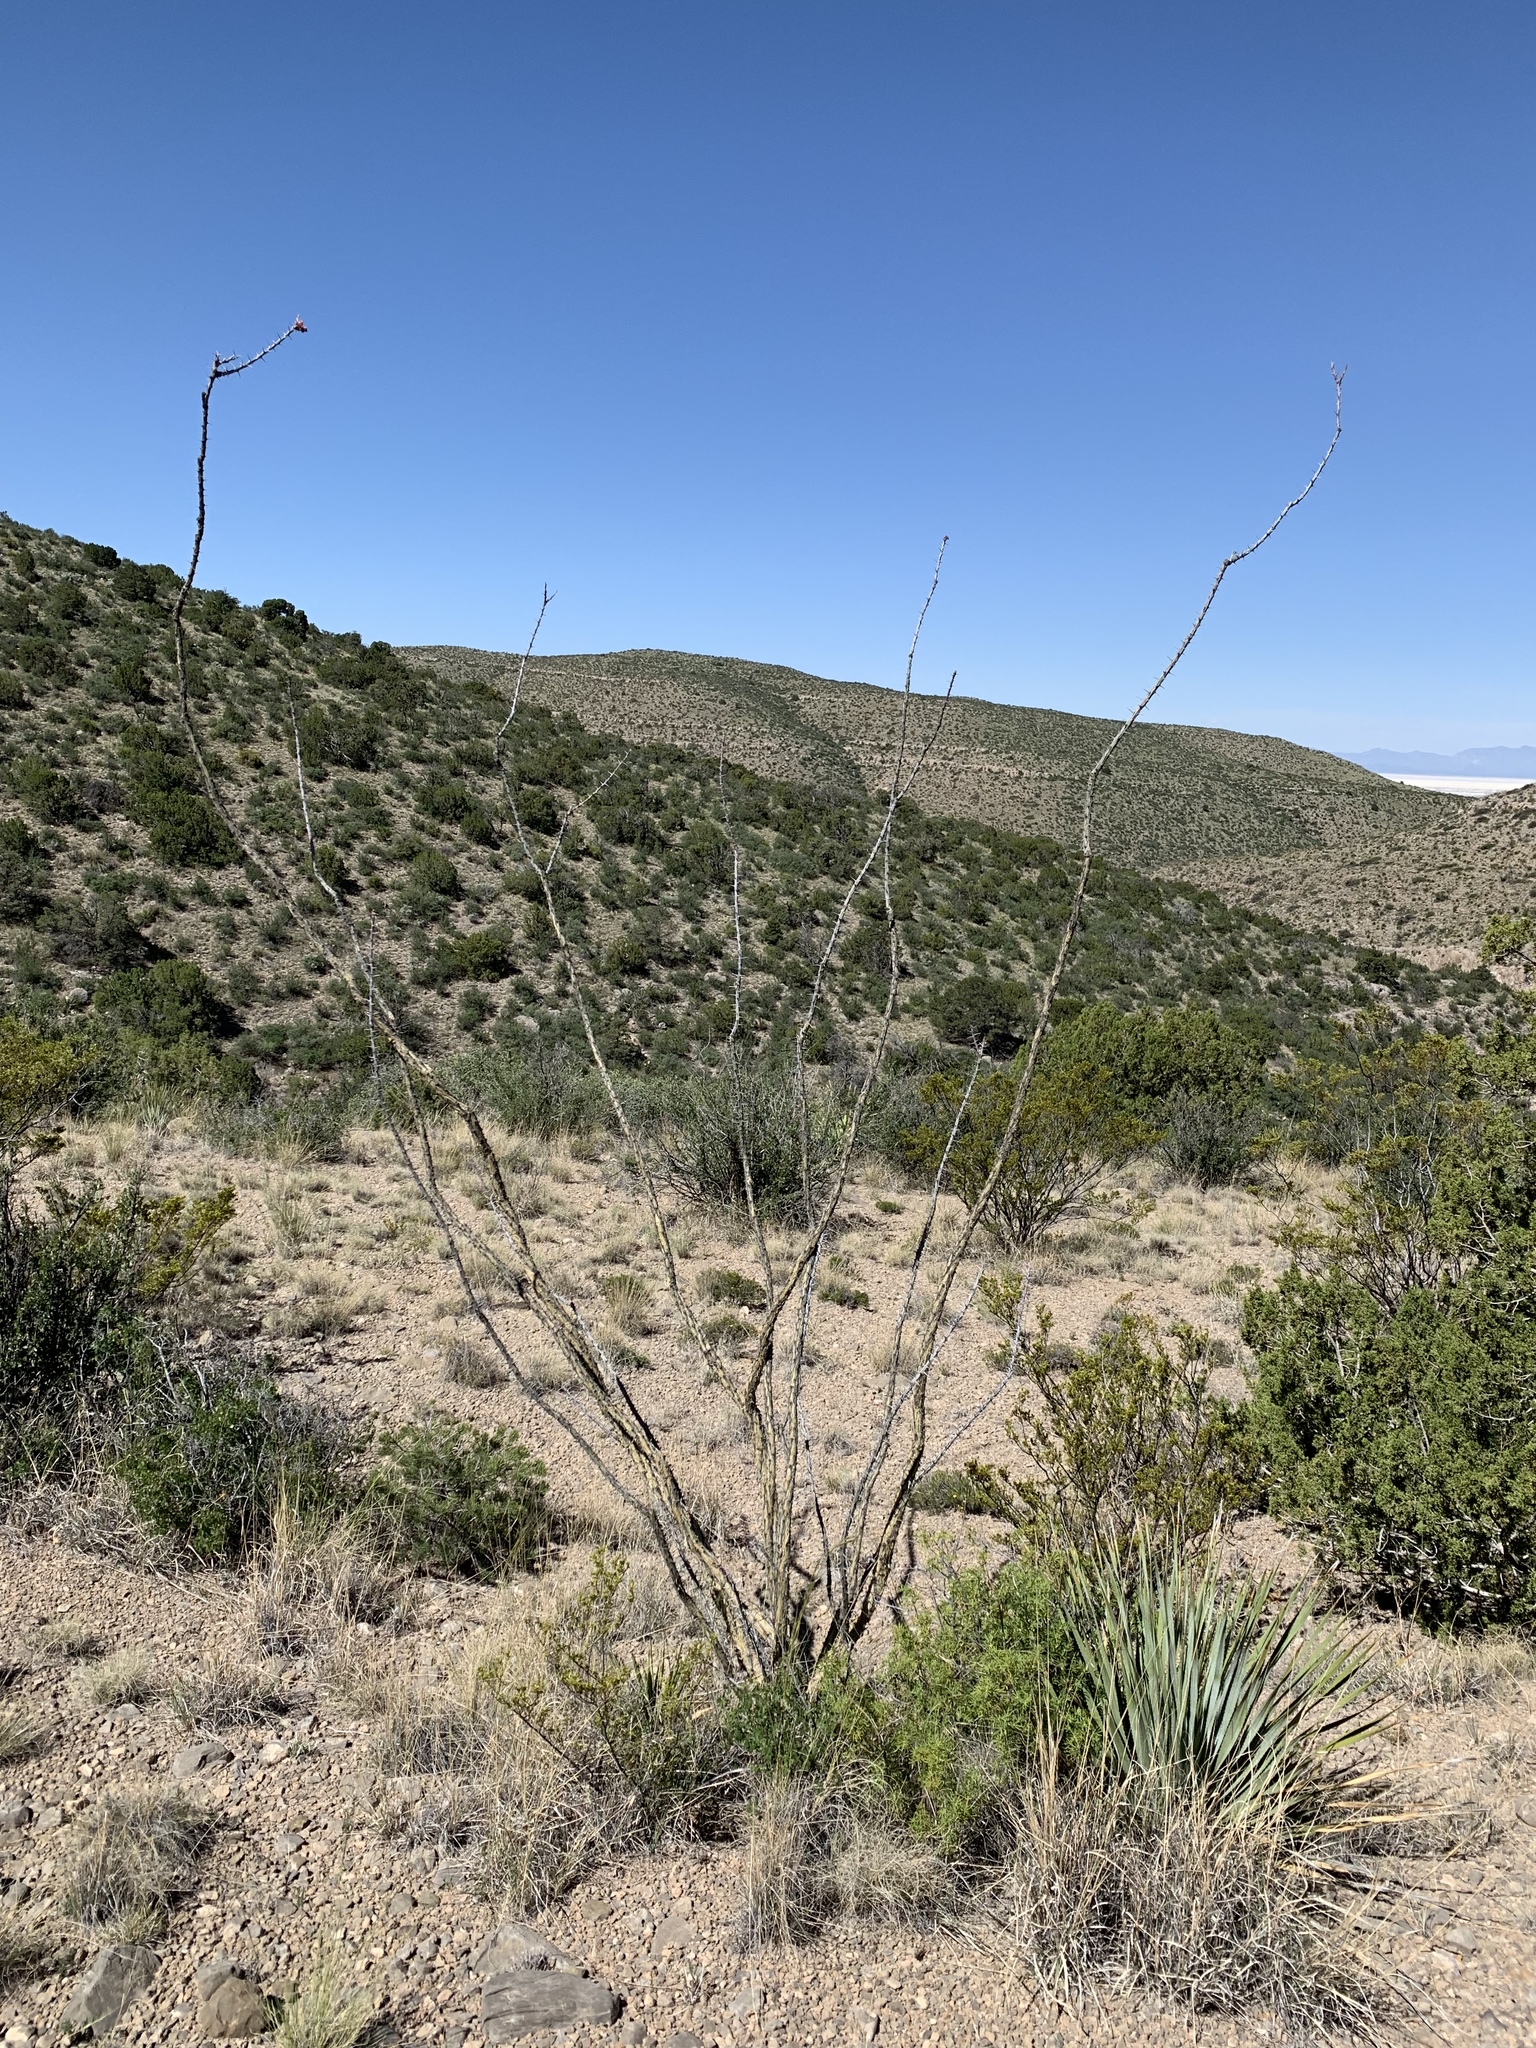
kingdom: Plantae
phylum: Tracheophyta
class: Magnoliopsida
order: Ericales
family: Fouquieriaceae
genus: Fouquieria
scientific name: Fouquieria splendens
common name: Vine-cactus
